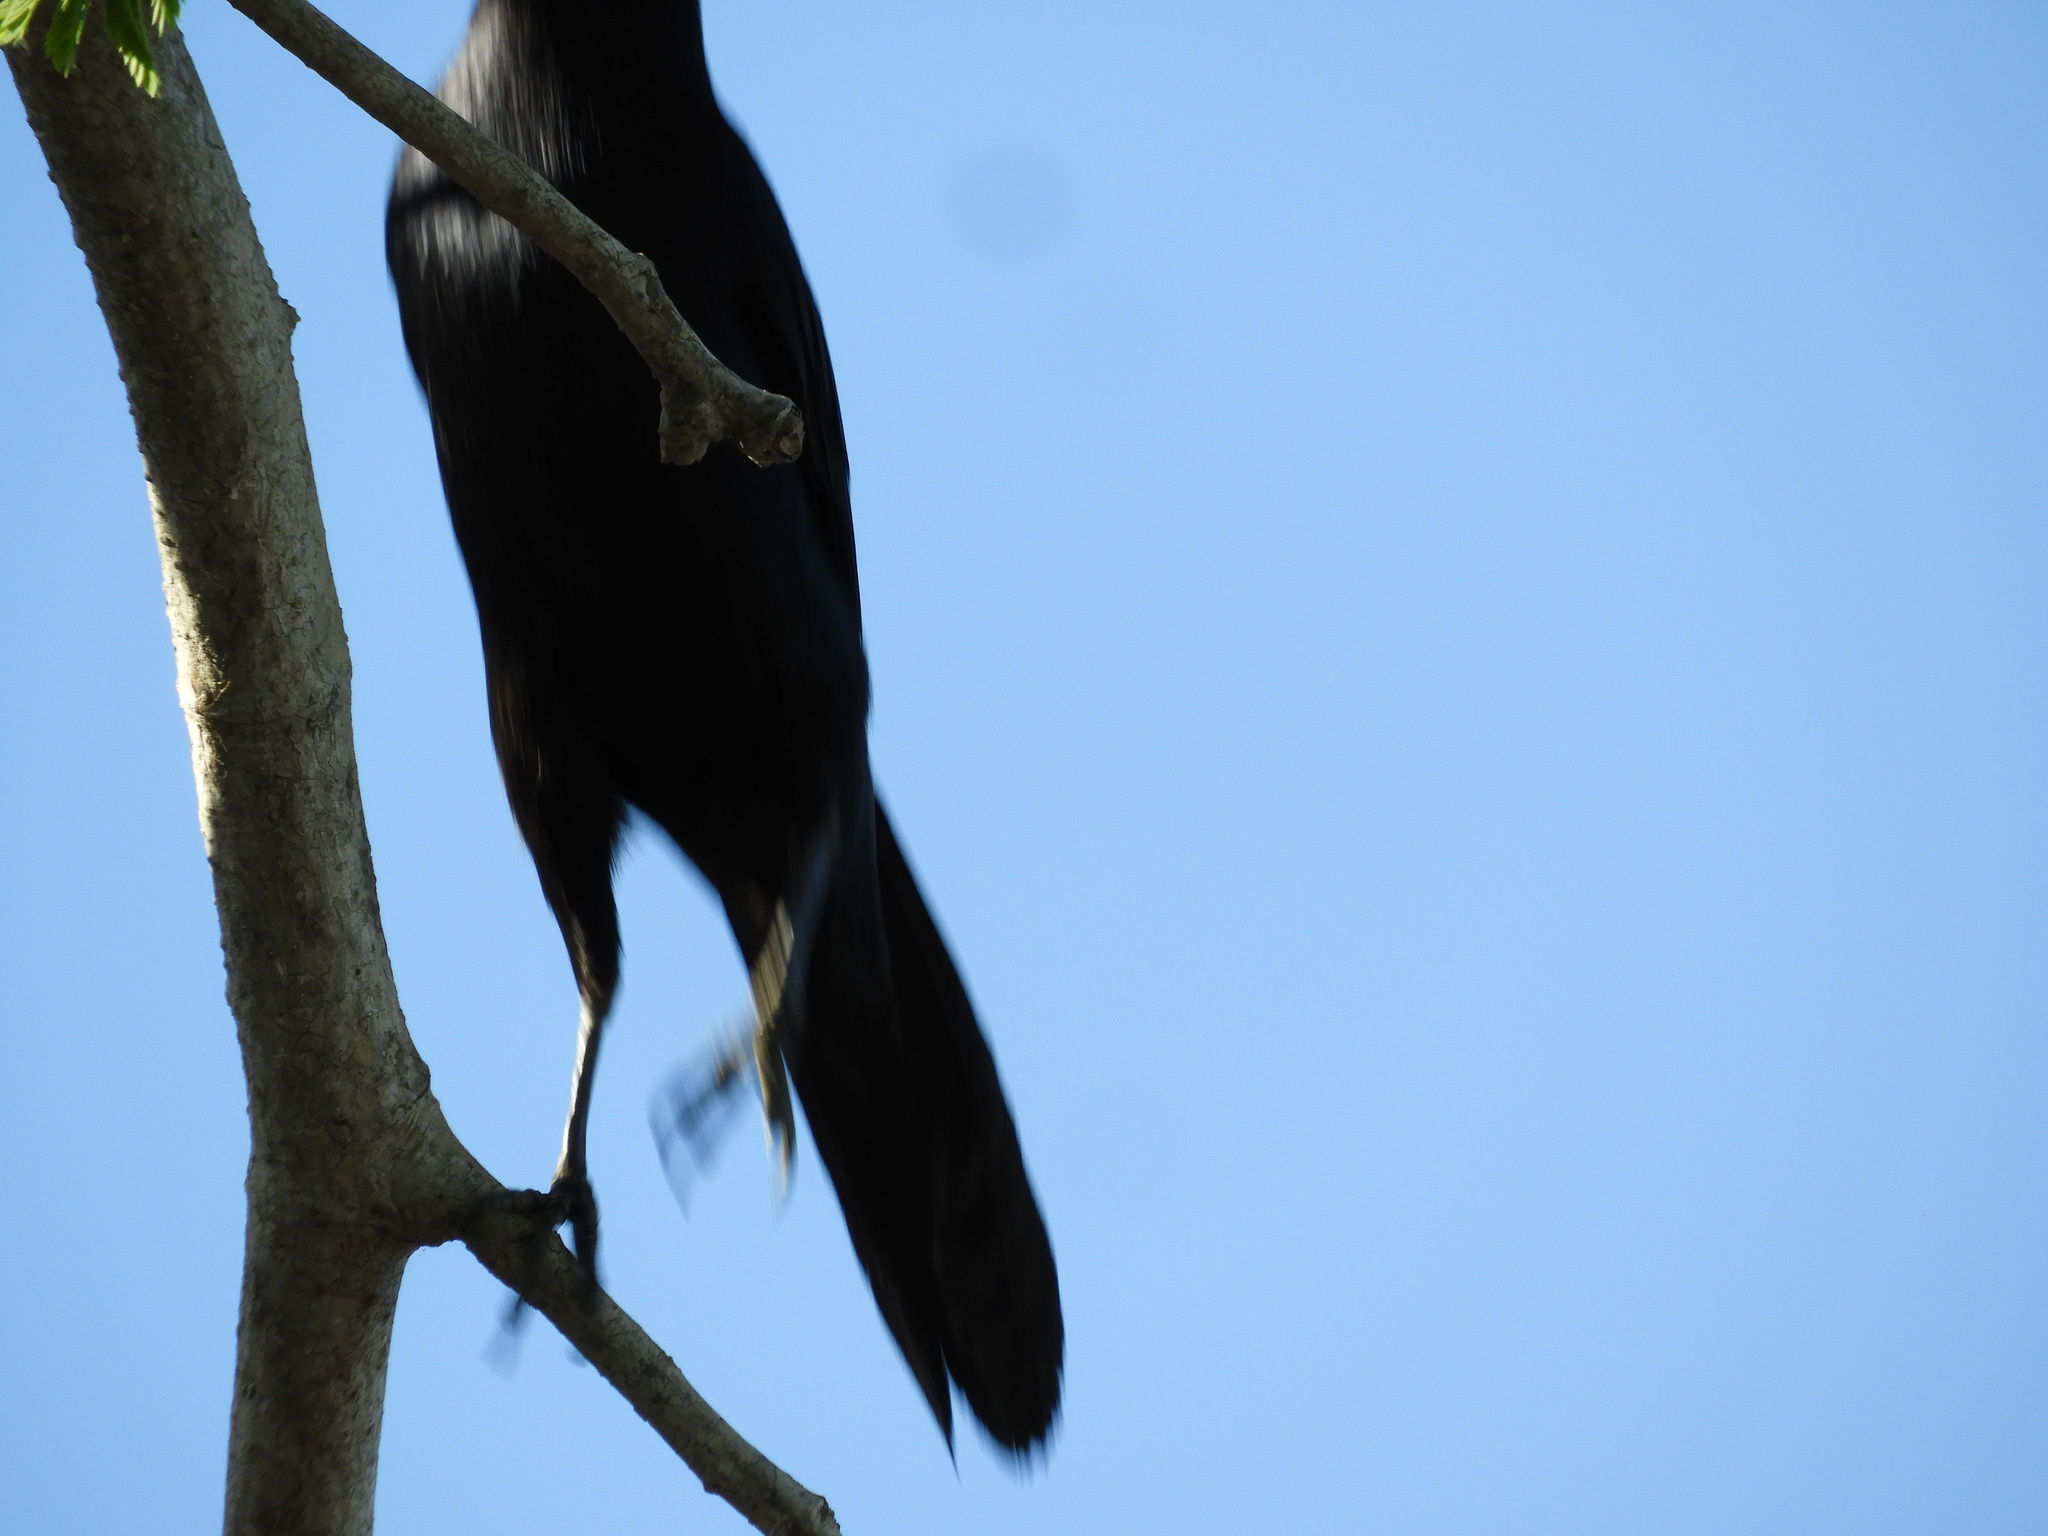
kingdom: Animalia
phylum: Chordata
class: Aves
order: Passeriformes
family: Icteridae
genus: Quiscalus
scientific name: Quiscalus mexicanus
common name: Great-tailed grackle
